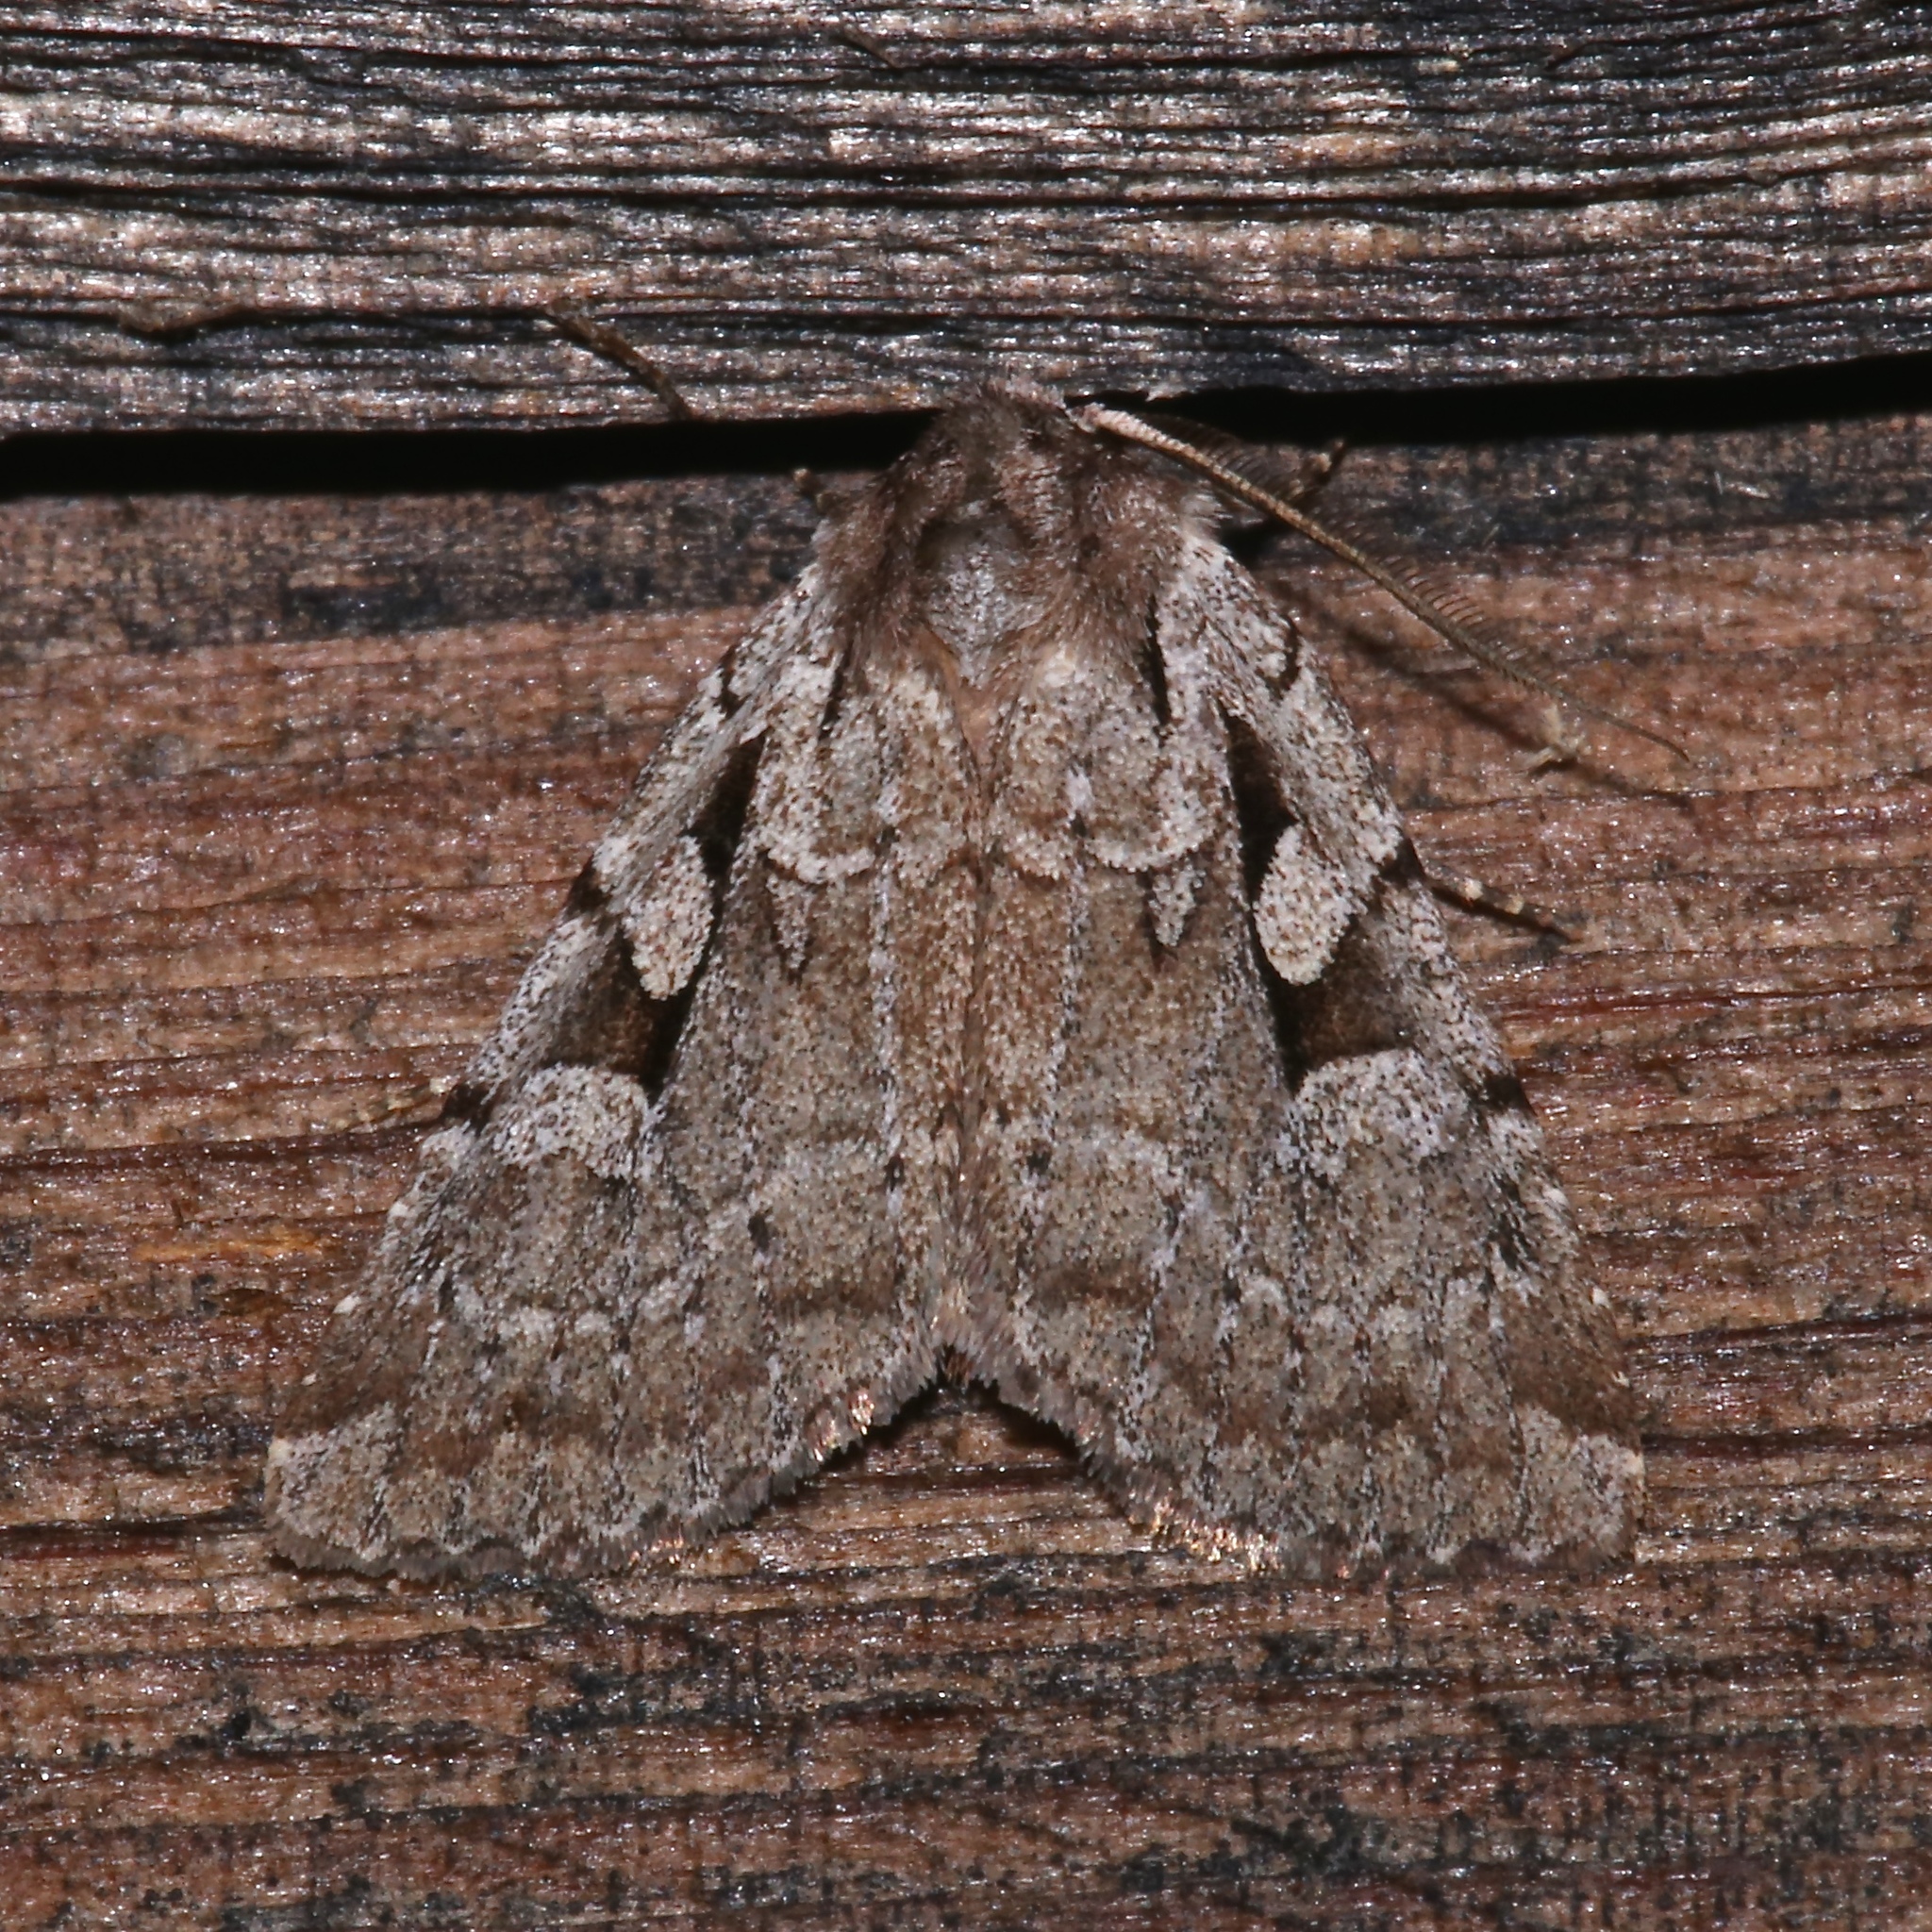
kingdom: Animalia
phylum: Arthropoda
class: Insecta
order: Lepidoptera
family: Noctuidae
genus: Xestia
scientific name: Xestia badicollis
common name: Northern variable dart
